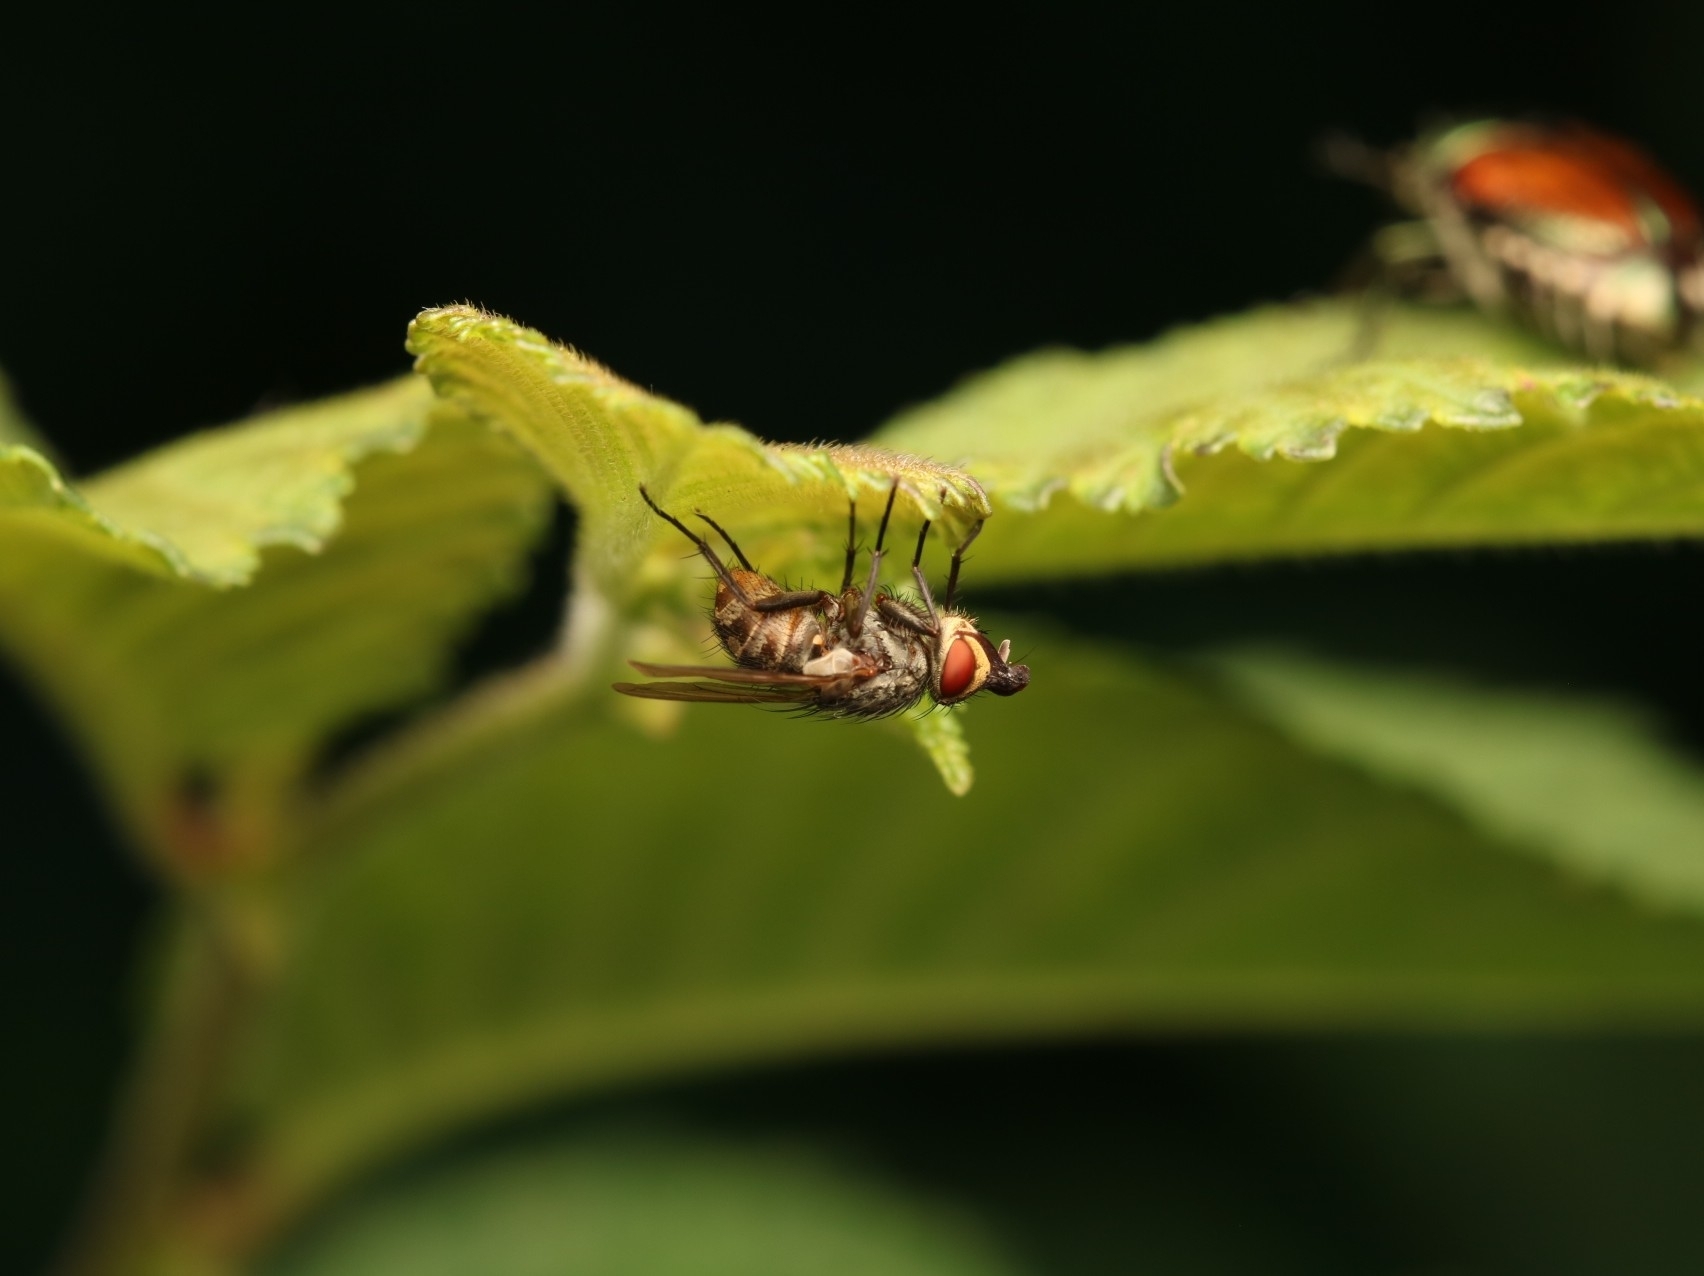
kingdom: Animalia
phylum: Arthropoda
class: Insecta
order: Diptera
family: Tachinidae
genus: Istocheta
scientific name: Istocheta aldrichi
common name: Parasitic wasp
